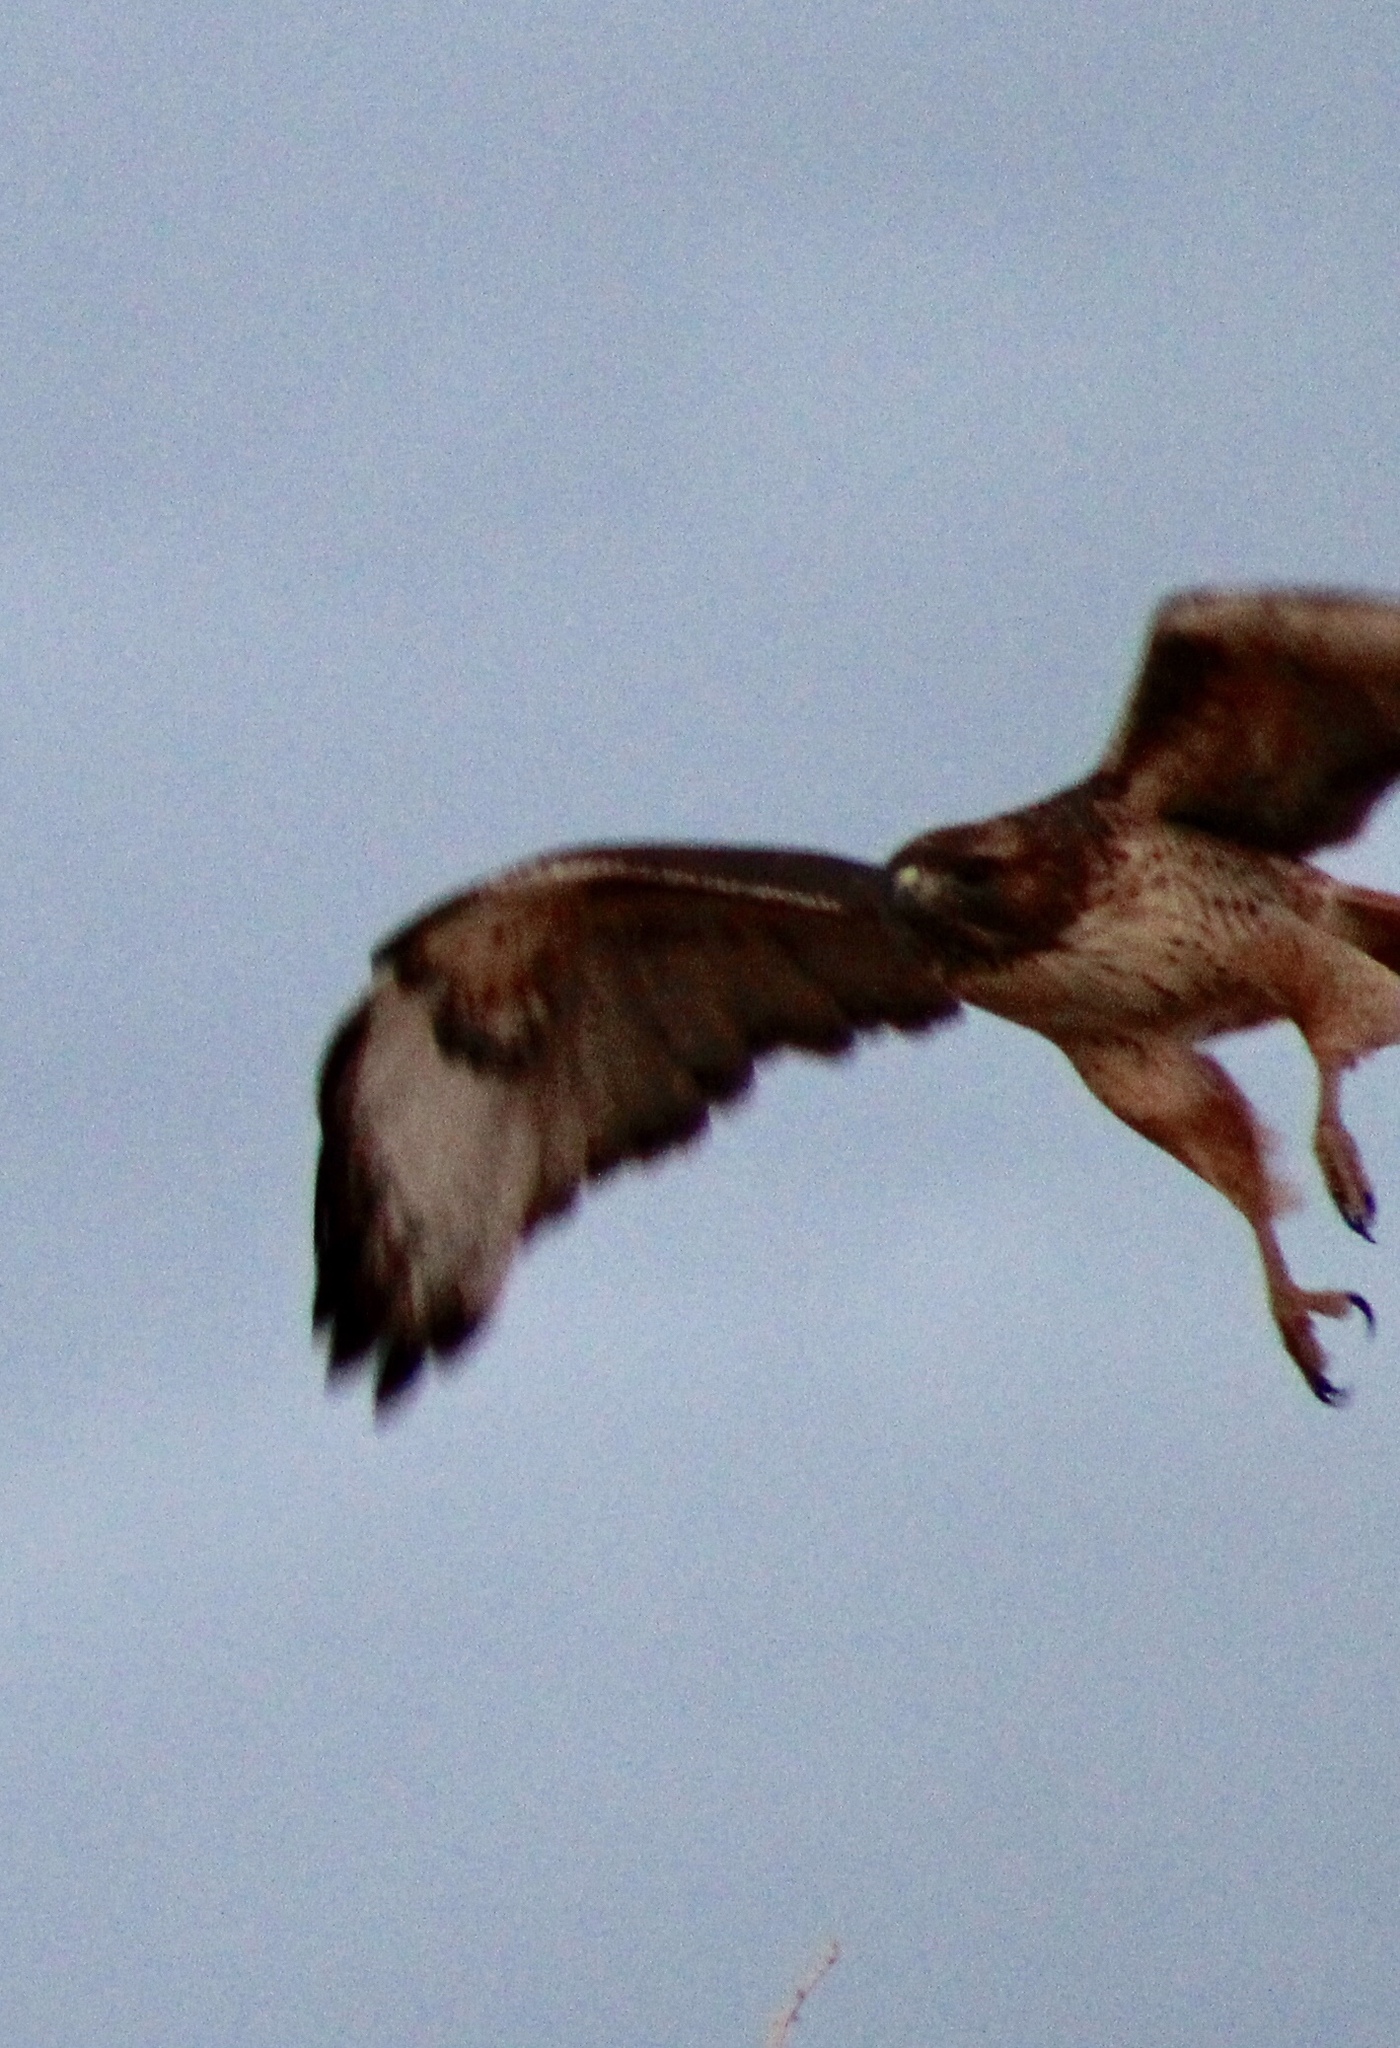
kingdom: Animalia
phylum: Chordata
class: Aves
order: Accipitriformes
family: Accipitridae
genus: Buteo
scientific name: Buteo jamaicensis
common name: Red-tailed hawk
